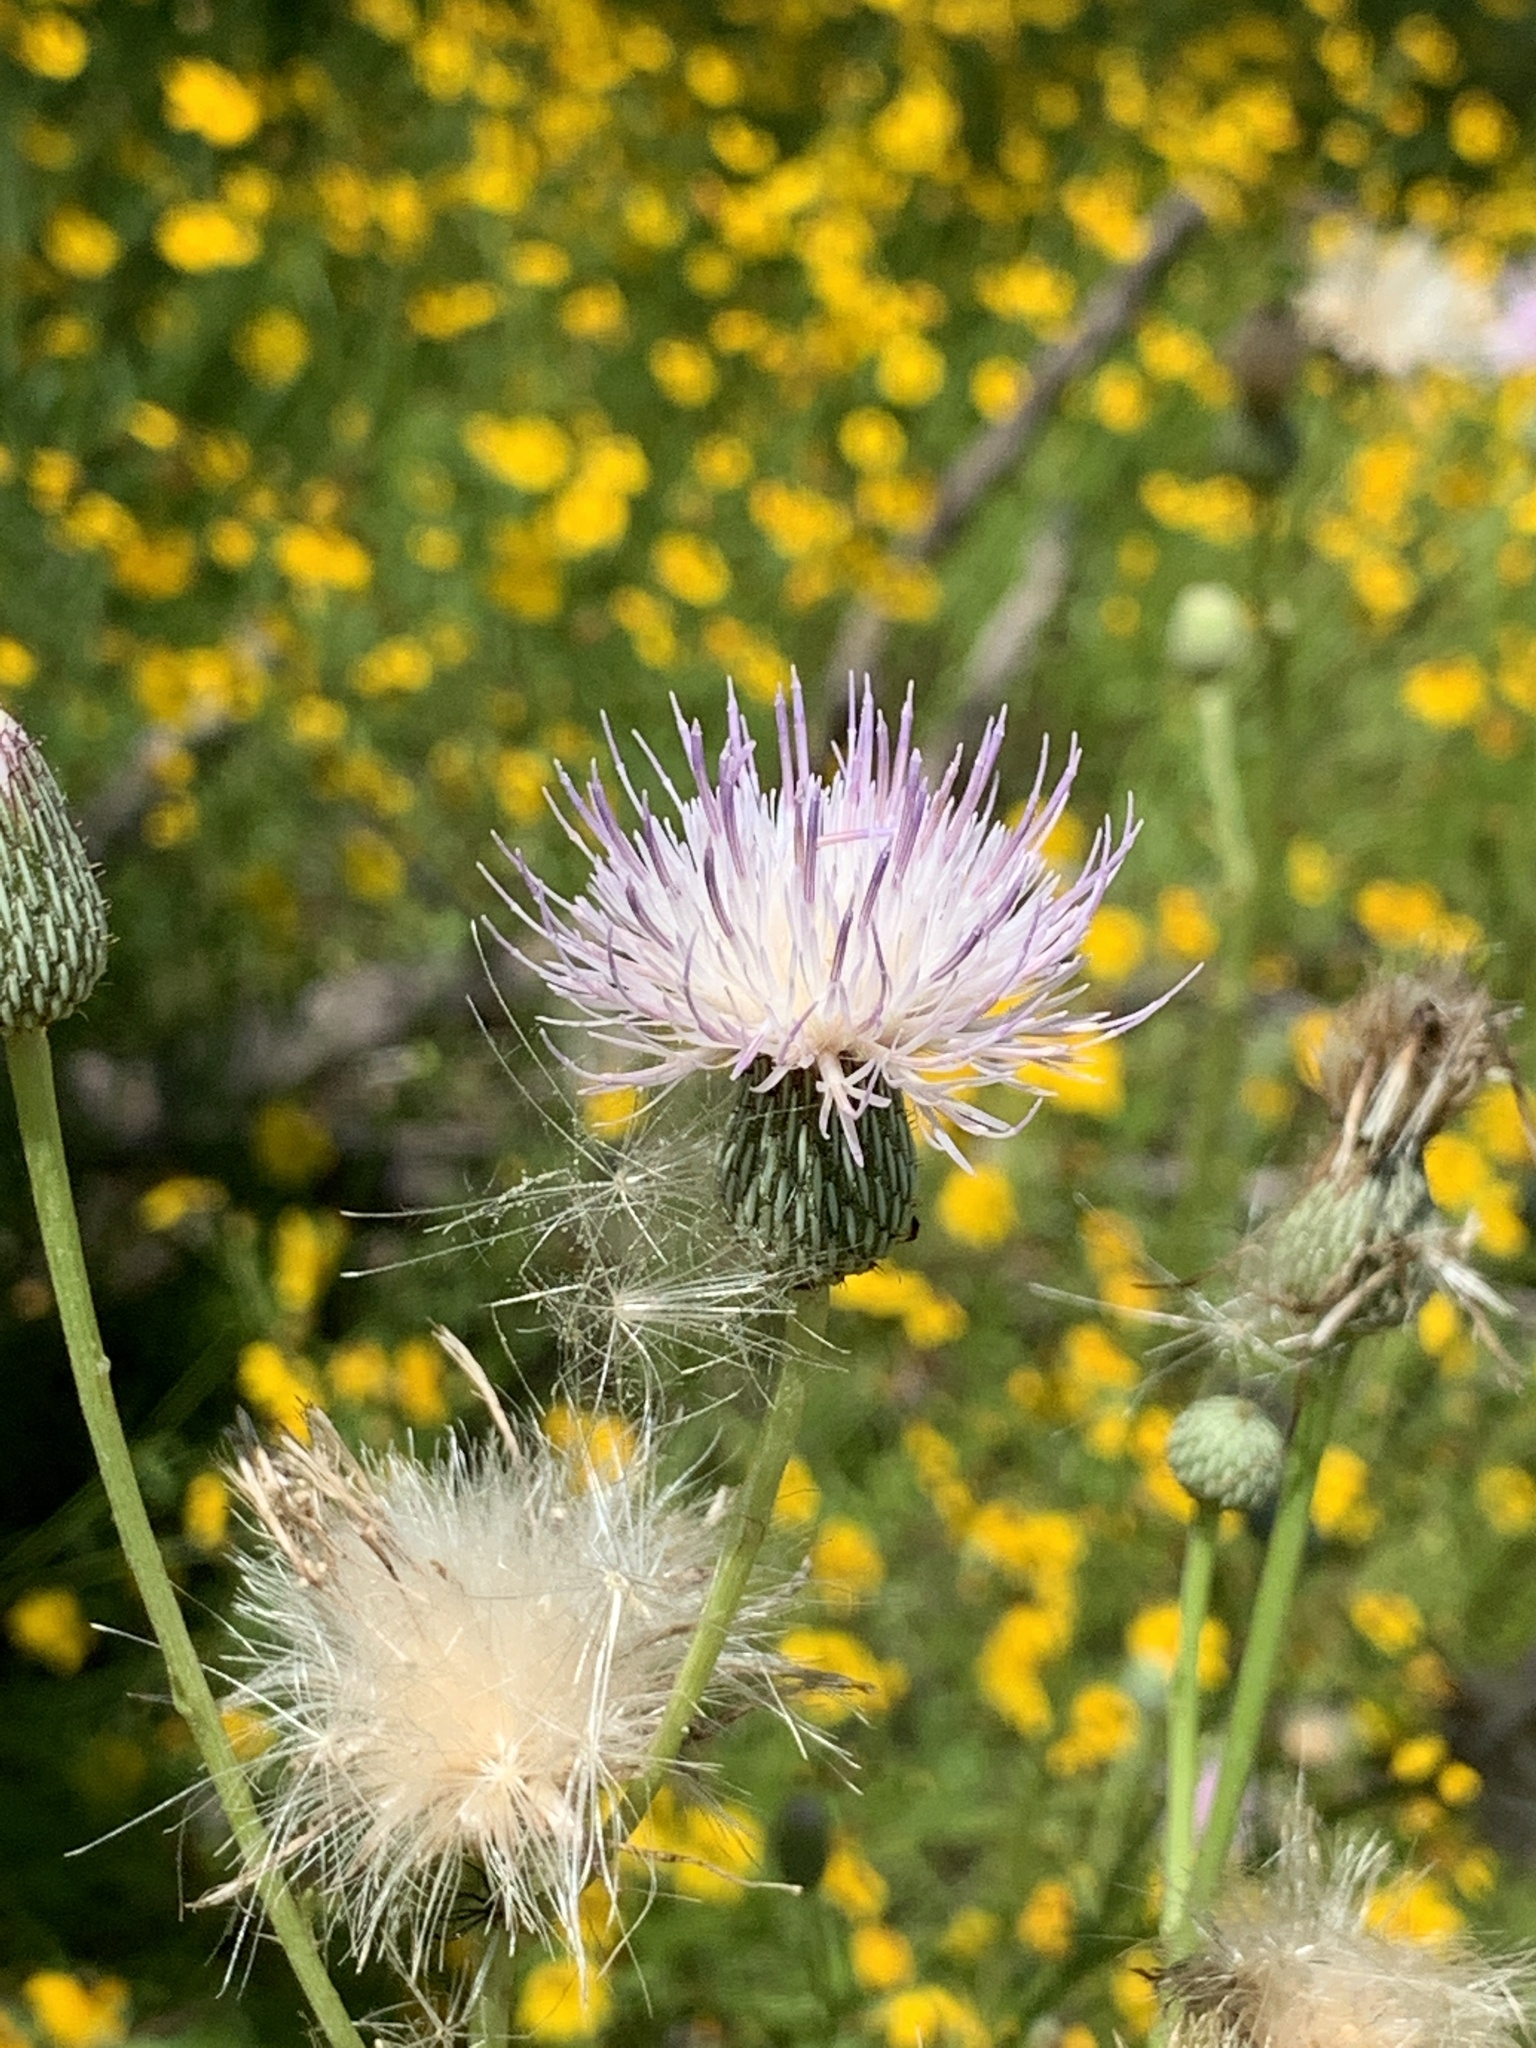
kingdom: Plantae
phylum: Tracheophyta
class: Magnoliopsida
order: Asterales
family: Asteraceae
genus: Cirsium
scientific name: Cirsium nuttalii
